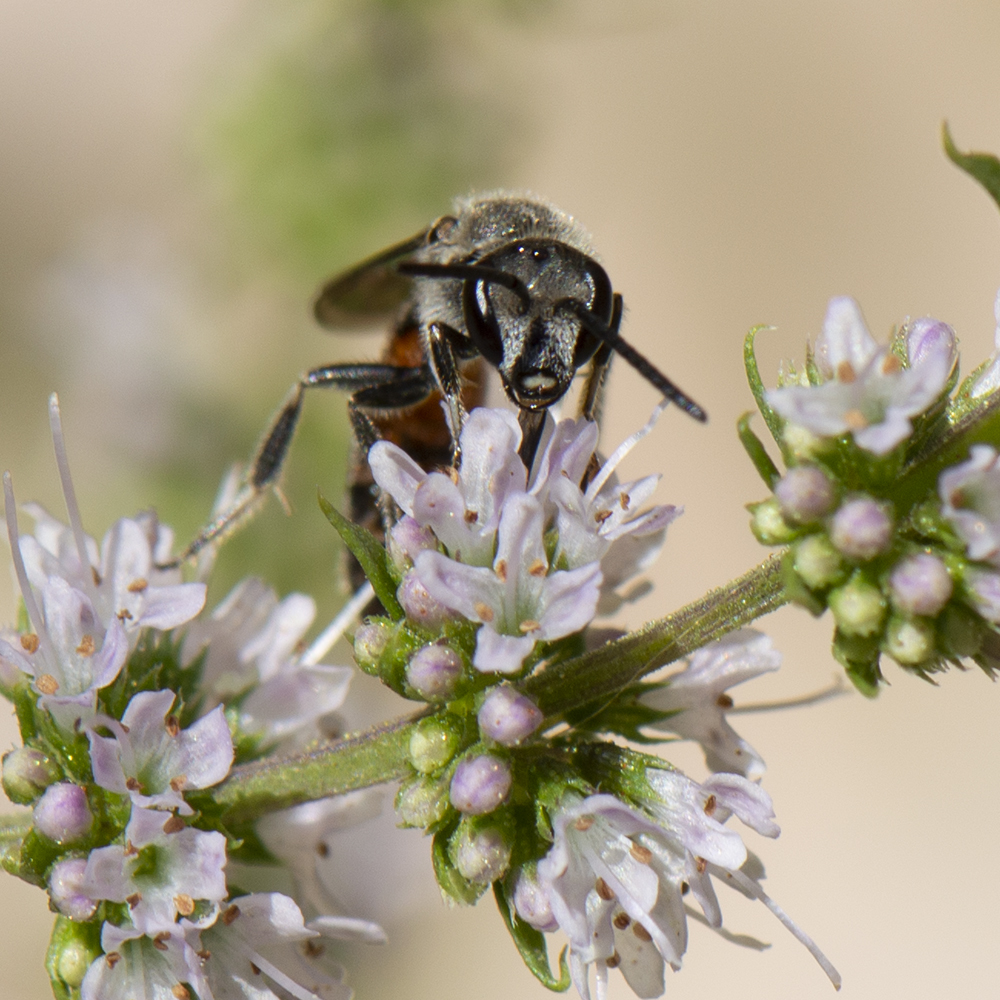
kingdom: Animalia
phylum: Arthropoda
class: Insecta
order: Hymenoptera
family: Halictidae
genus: Lasioglossum
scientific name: Lasioglossum nigripes
